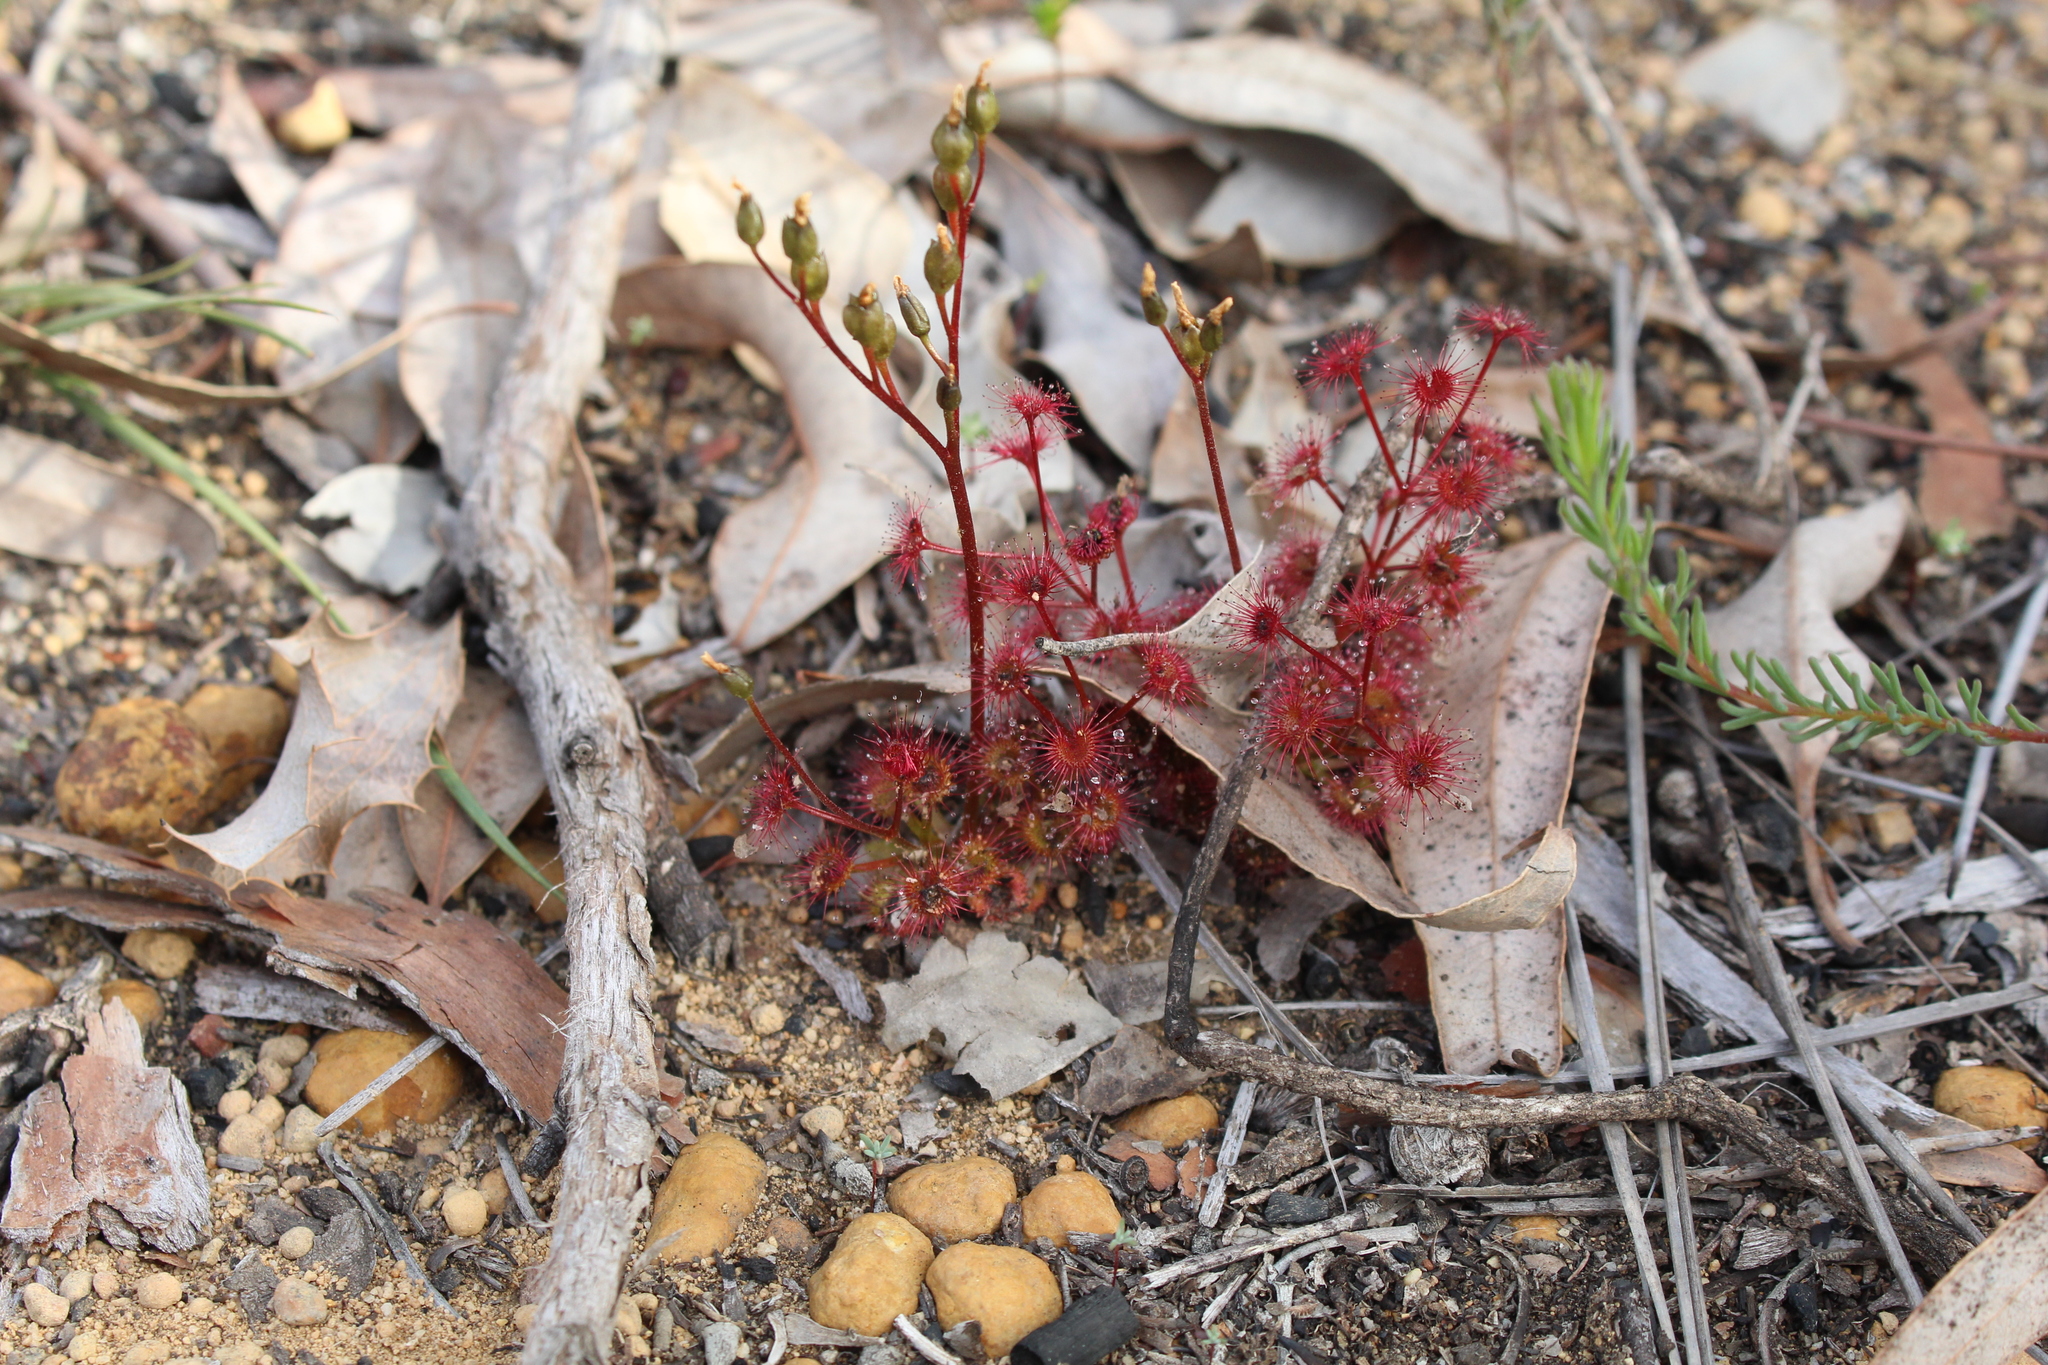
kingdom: Plantae
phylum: Tracheophyta
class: Magnoliopsida
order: Caryophyllales
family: Droseraceae
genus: Drosera
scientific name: Drosera stolonifera
